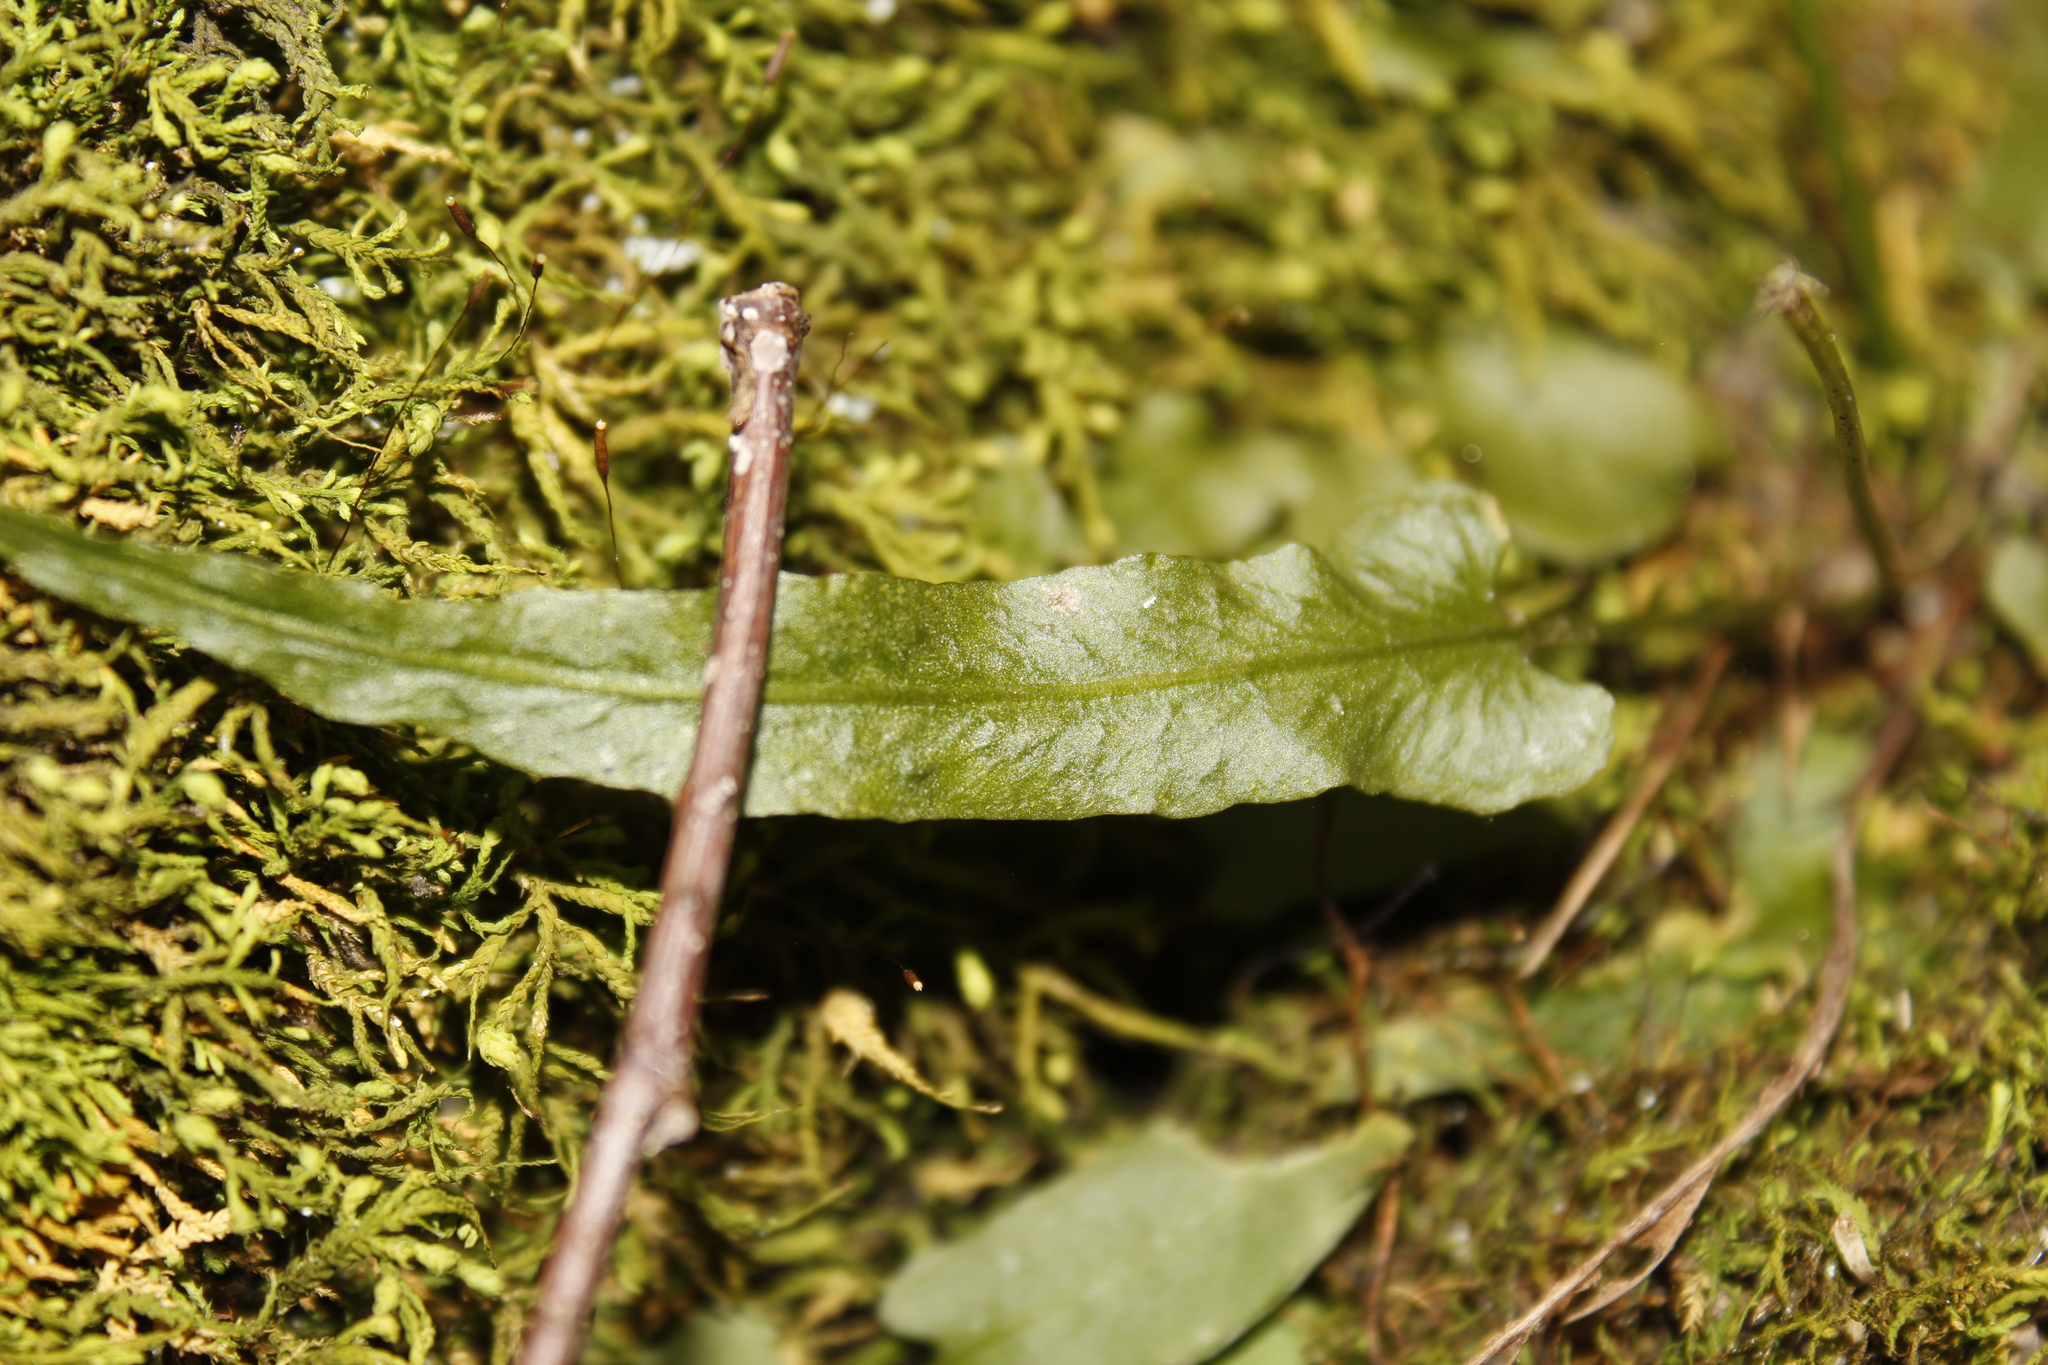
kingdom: Plantae
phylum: Tracheophyta
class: Polypodiopsida
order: Polypodiales
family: Aspleniaceae
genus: Asplenium
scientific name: Asplenium rhizophyllum
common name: Walking fern
